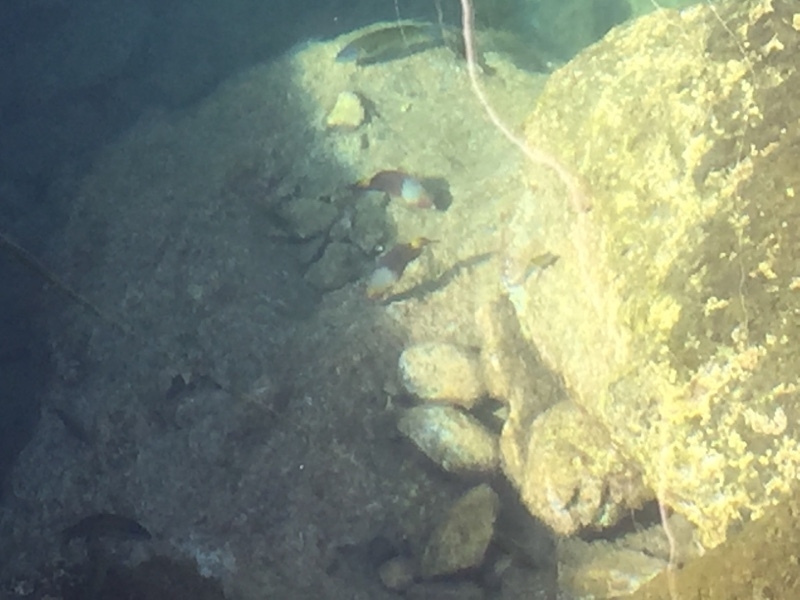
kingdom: Animalia
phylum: Chordata
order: Perciformes
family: Scaridae
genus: Sparisoma
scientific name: Sparisoma cretense
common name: Parrotfish
